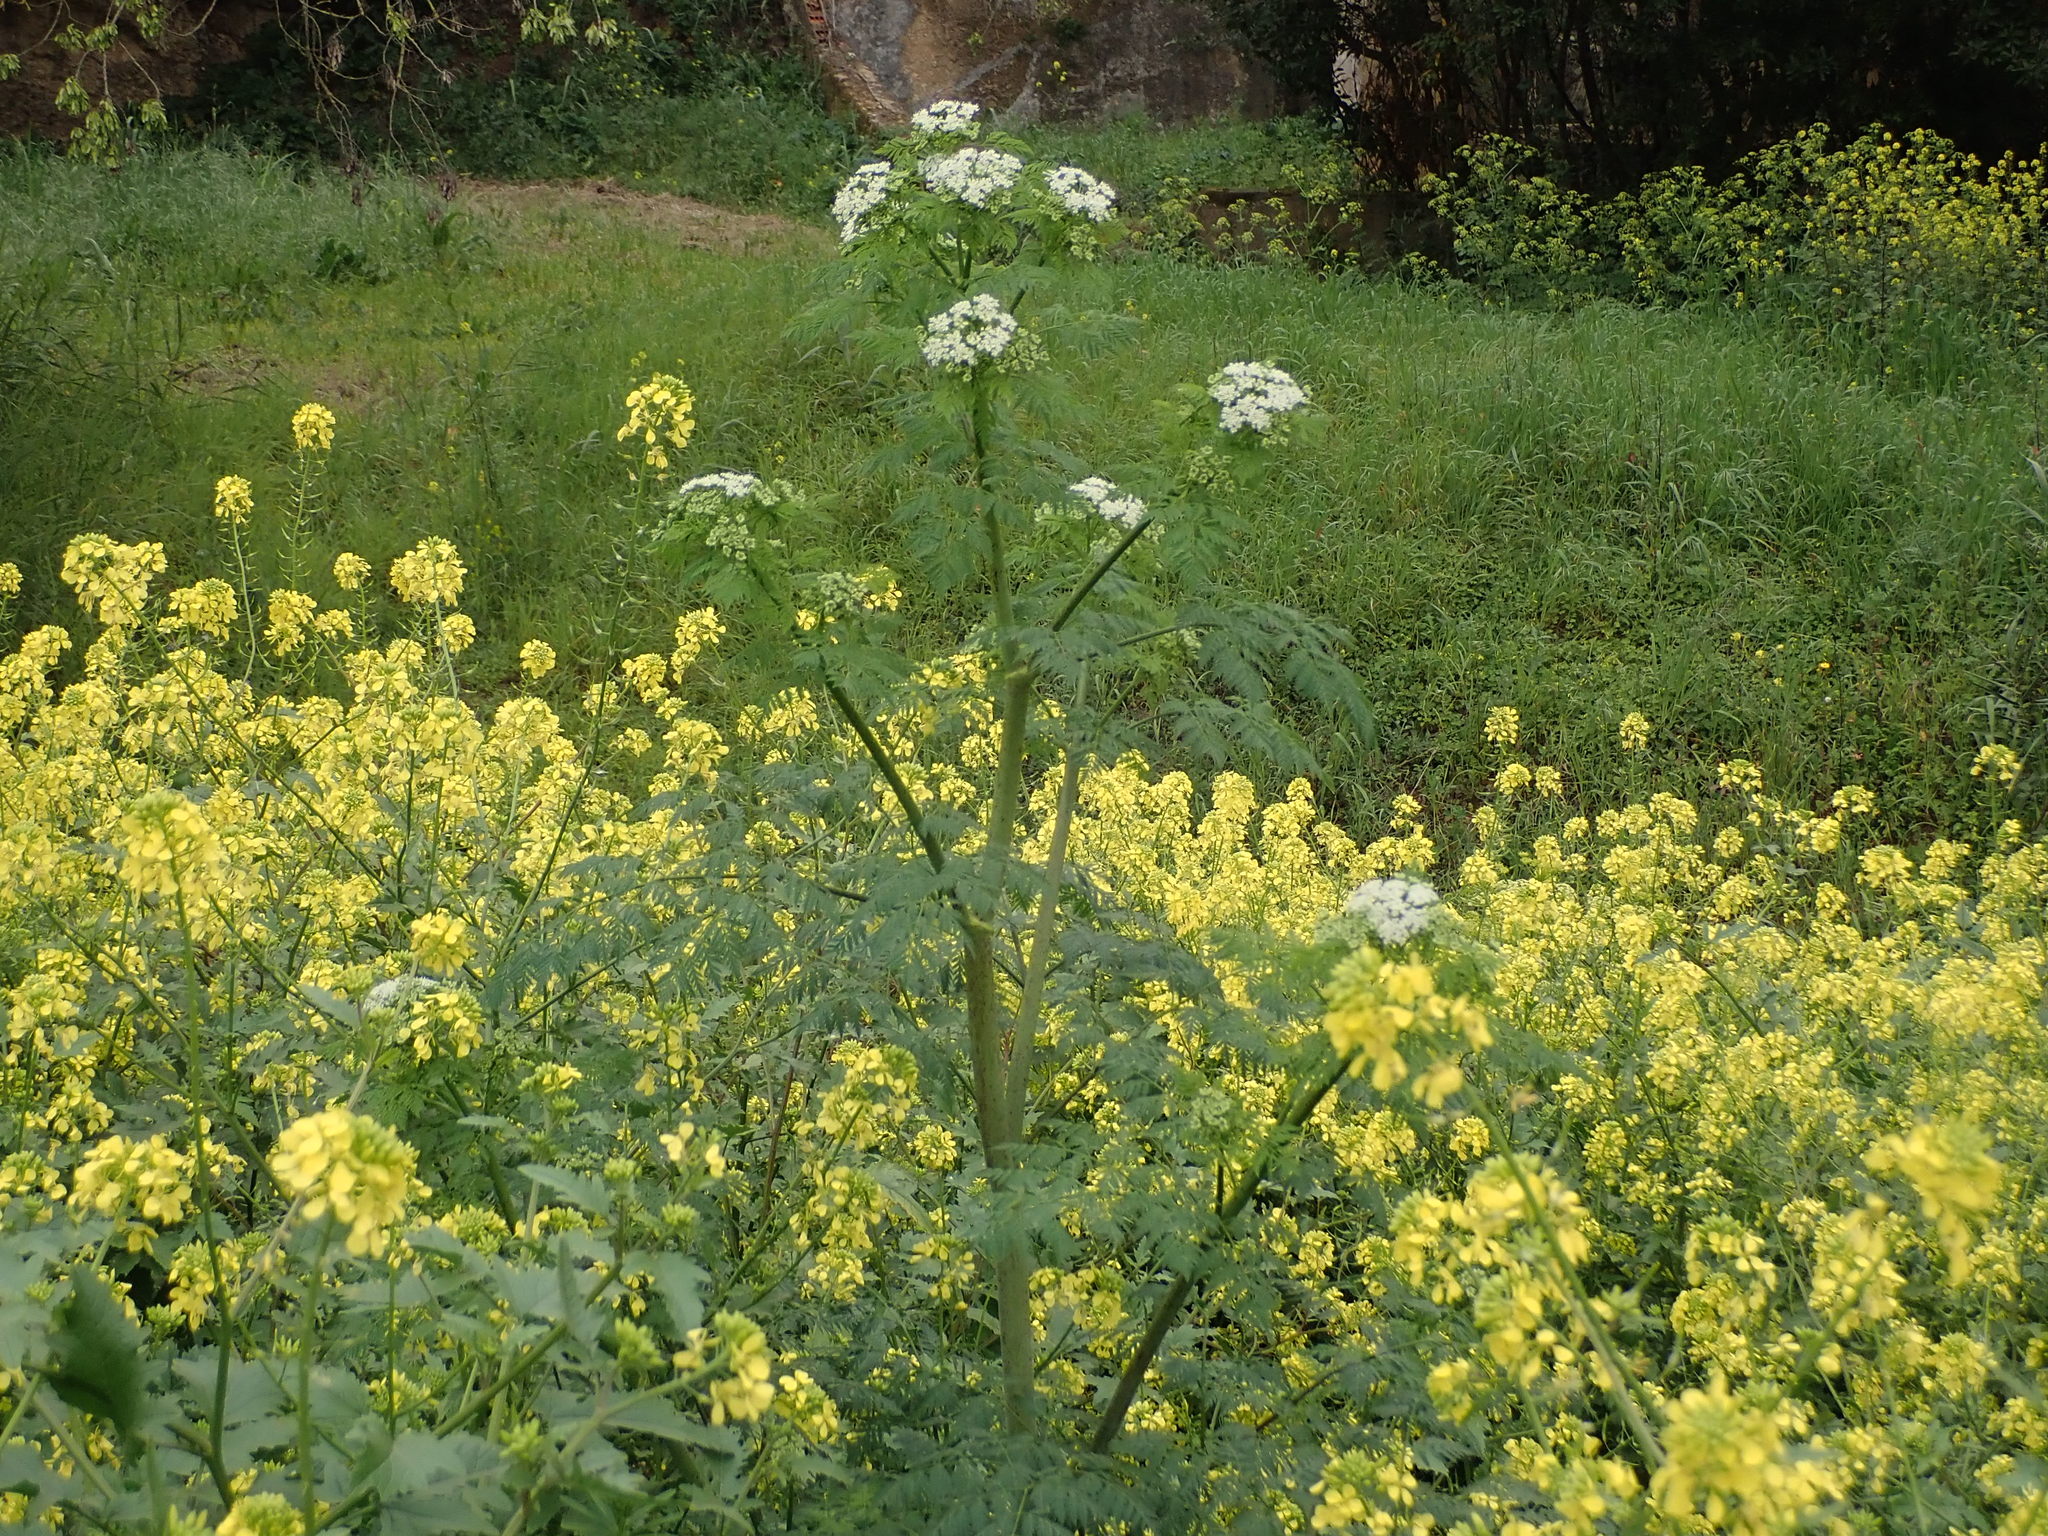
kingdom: Plantae
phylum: Tracheophyta
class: Magnoliopsida
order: Apiales
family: Apiaceae
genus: Conium
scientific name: Conium maculatum
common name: Hemlock
